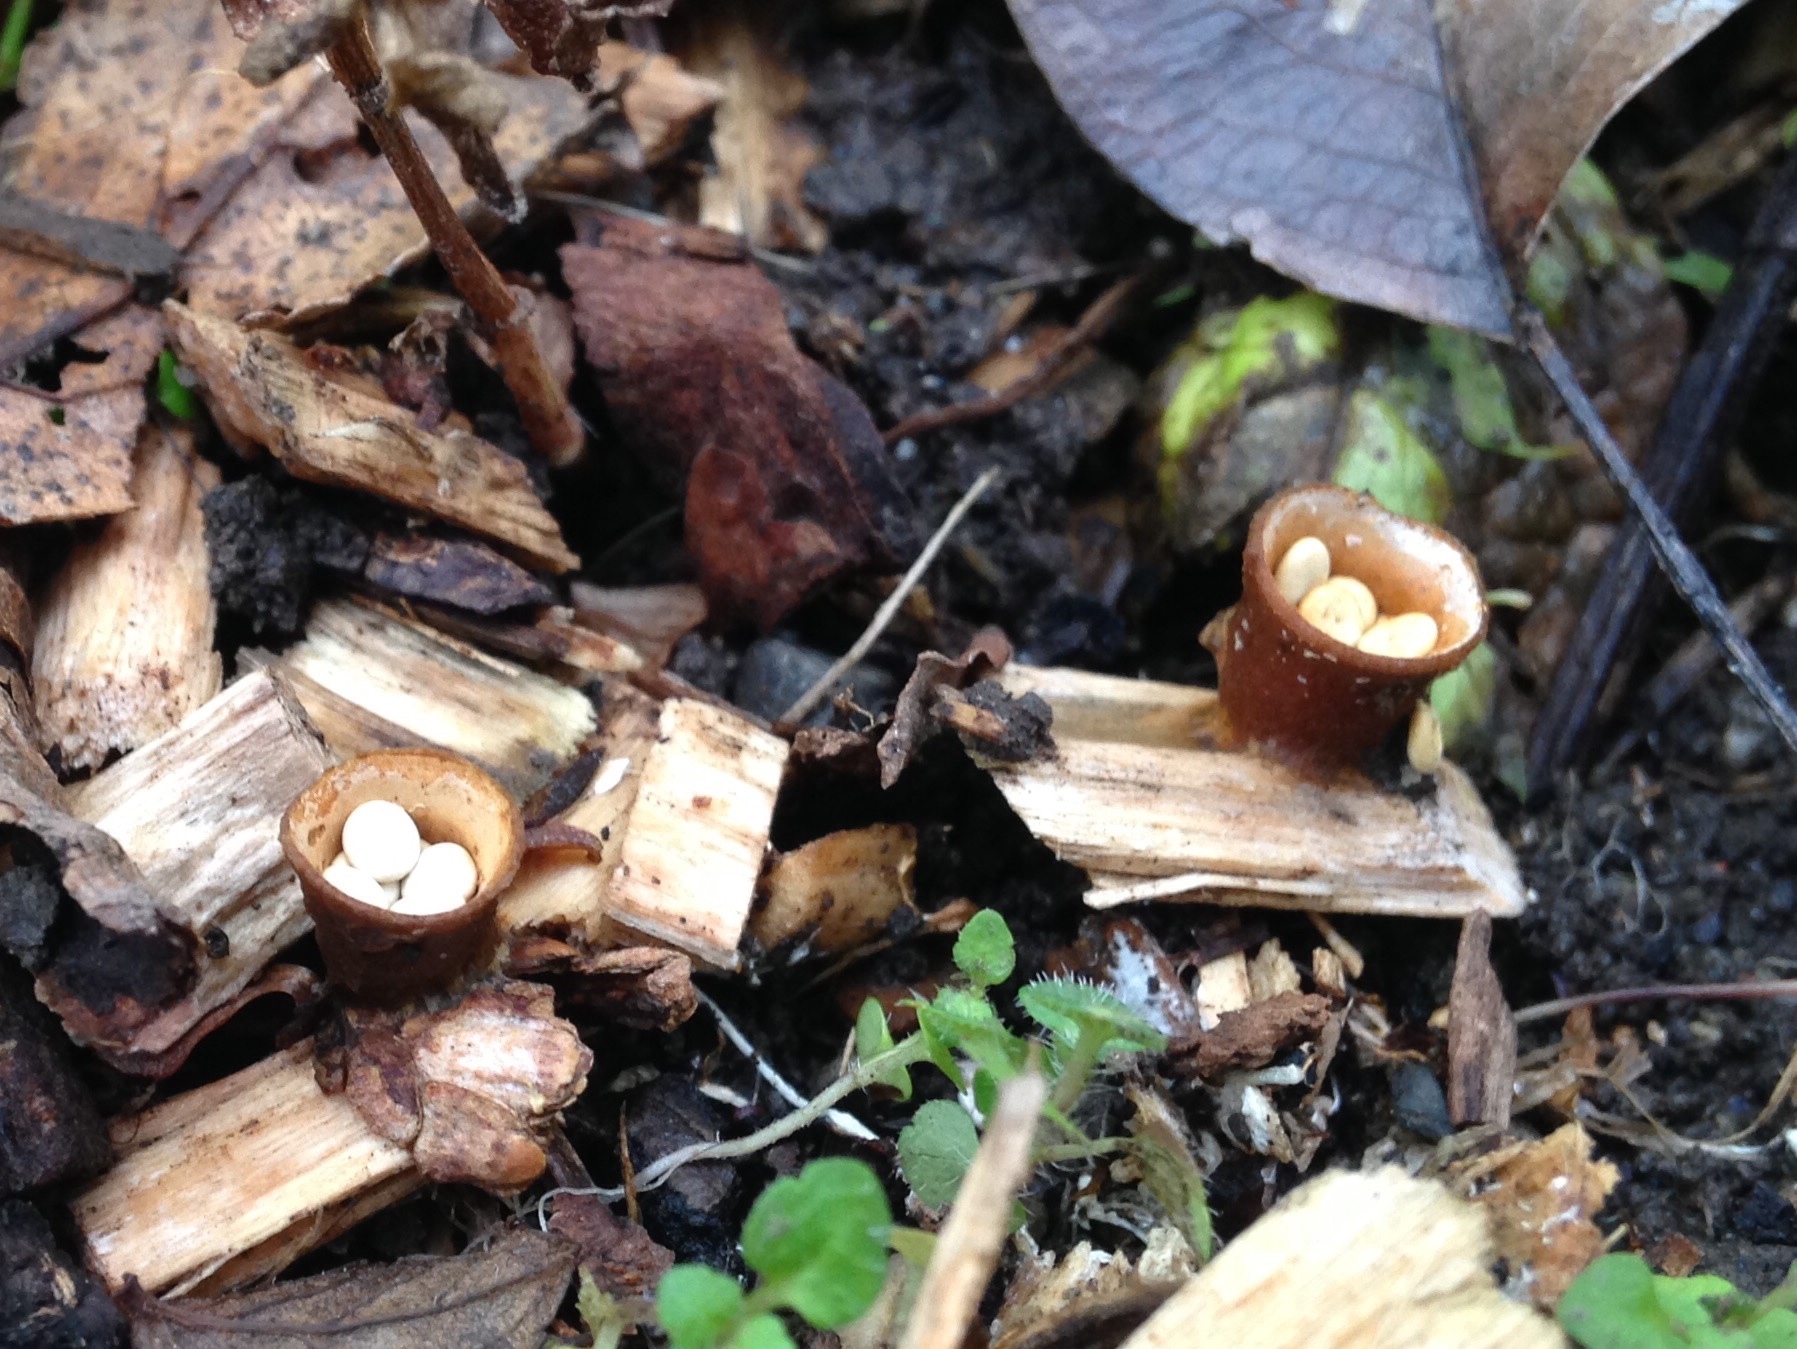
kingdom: Fungi
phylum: Basidiomycota
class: Agaricomycetes
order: Agaricales
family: Nidulariaceae
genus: Crucibulum
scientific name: Crucibulum laeve
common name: Common bird's nest
